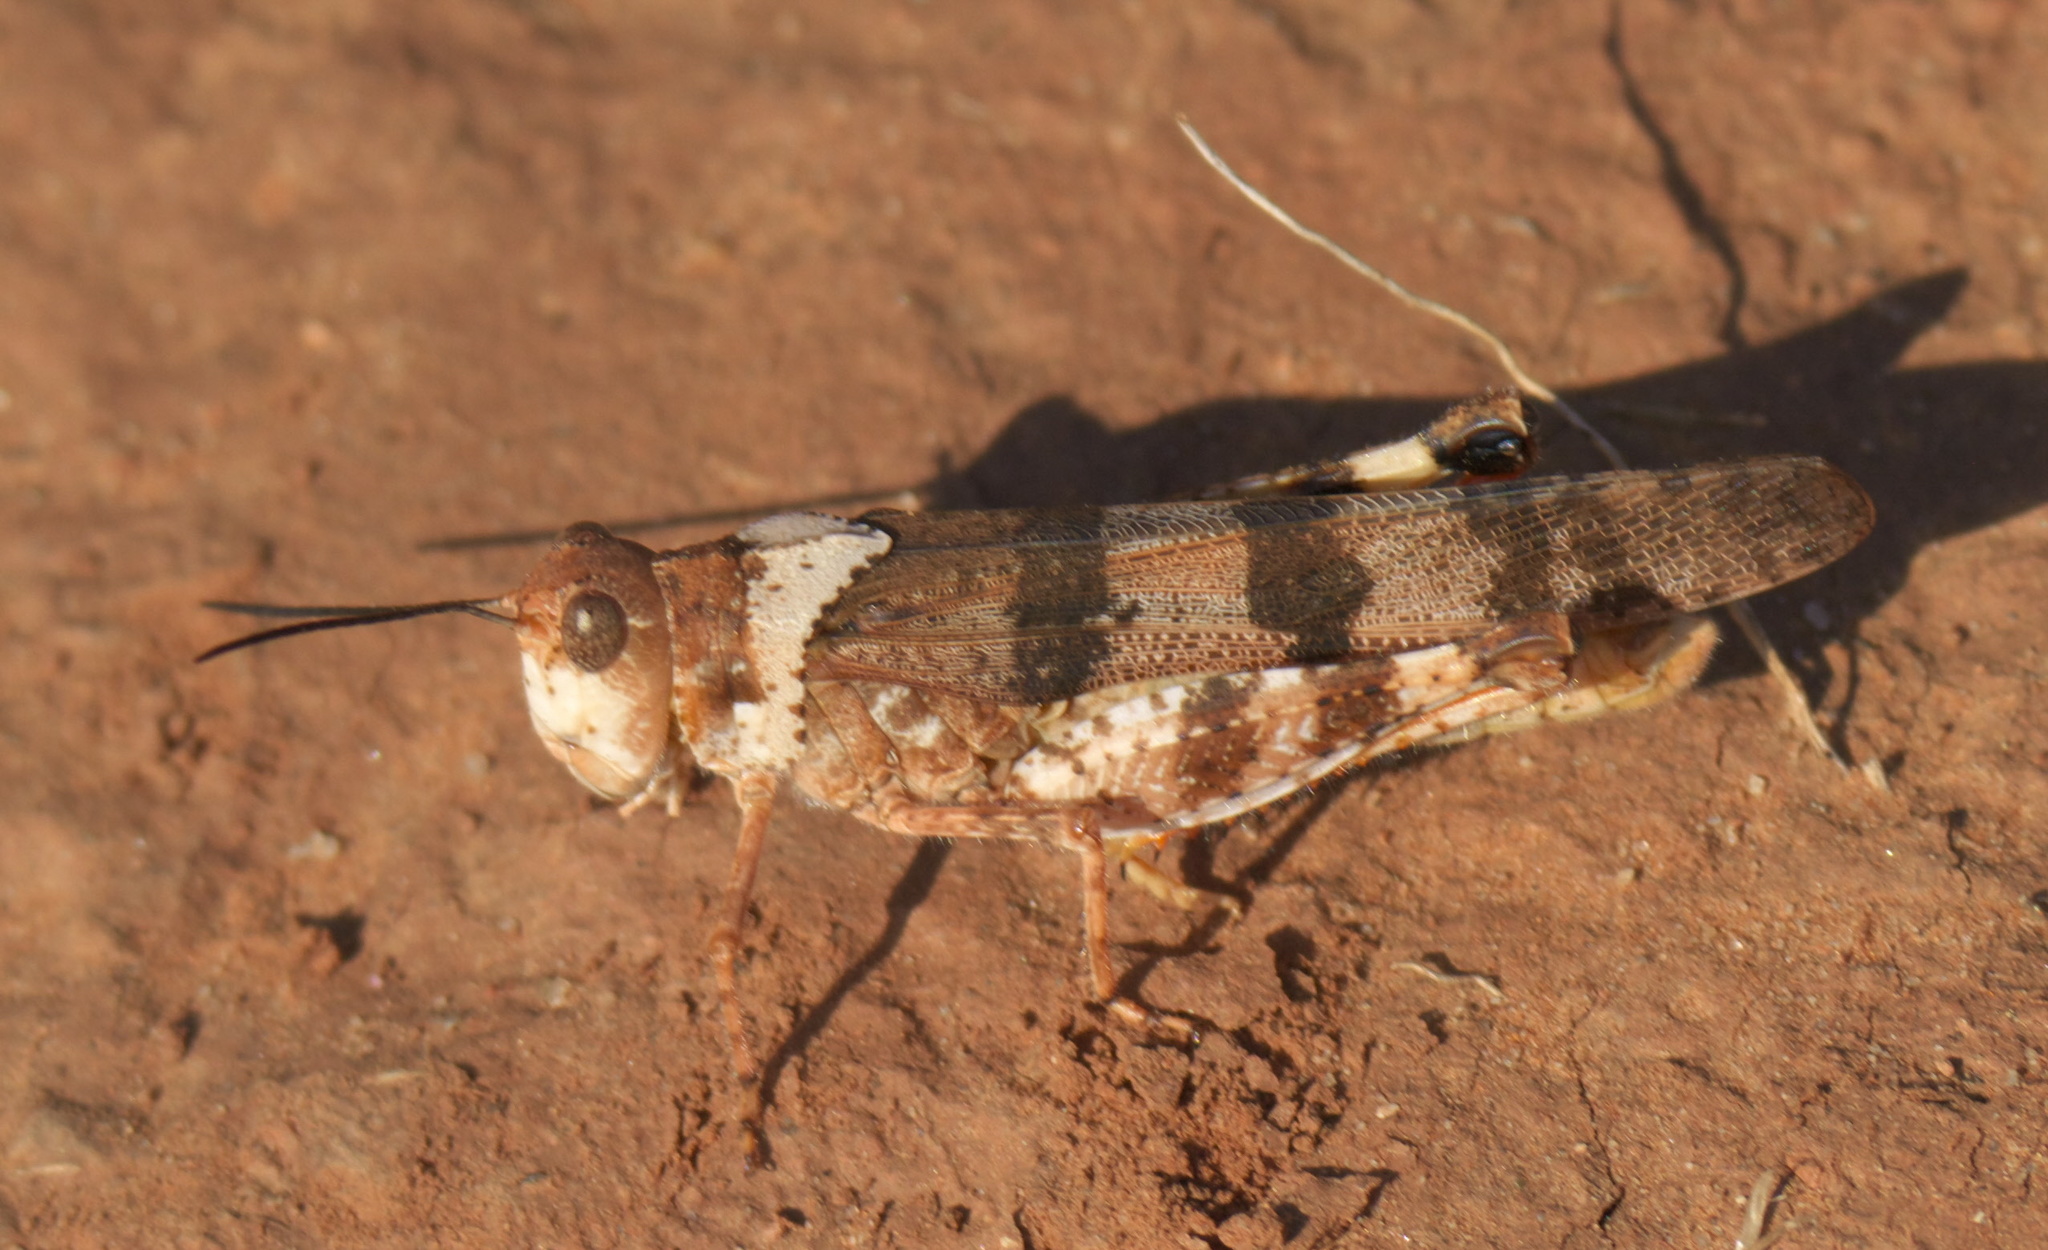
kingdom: Animalia
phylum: Arthropoda
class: Insecta
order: Orthoptera
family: Acrididae
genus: Spharagemon
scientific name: Spharagemon equale
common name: Orange-legged grasshopper
